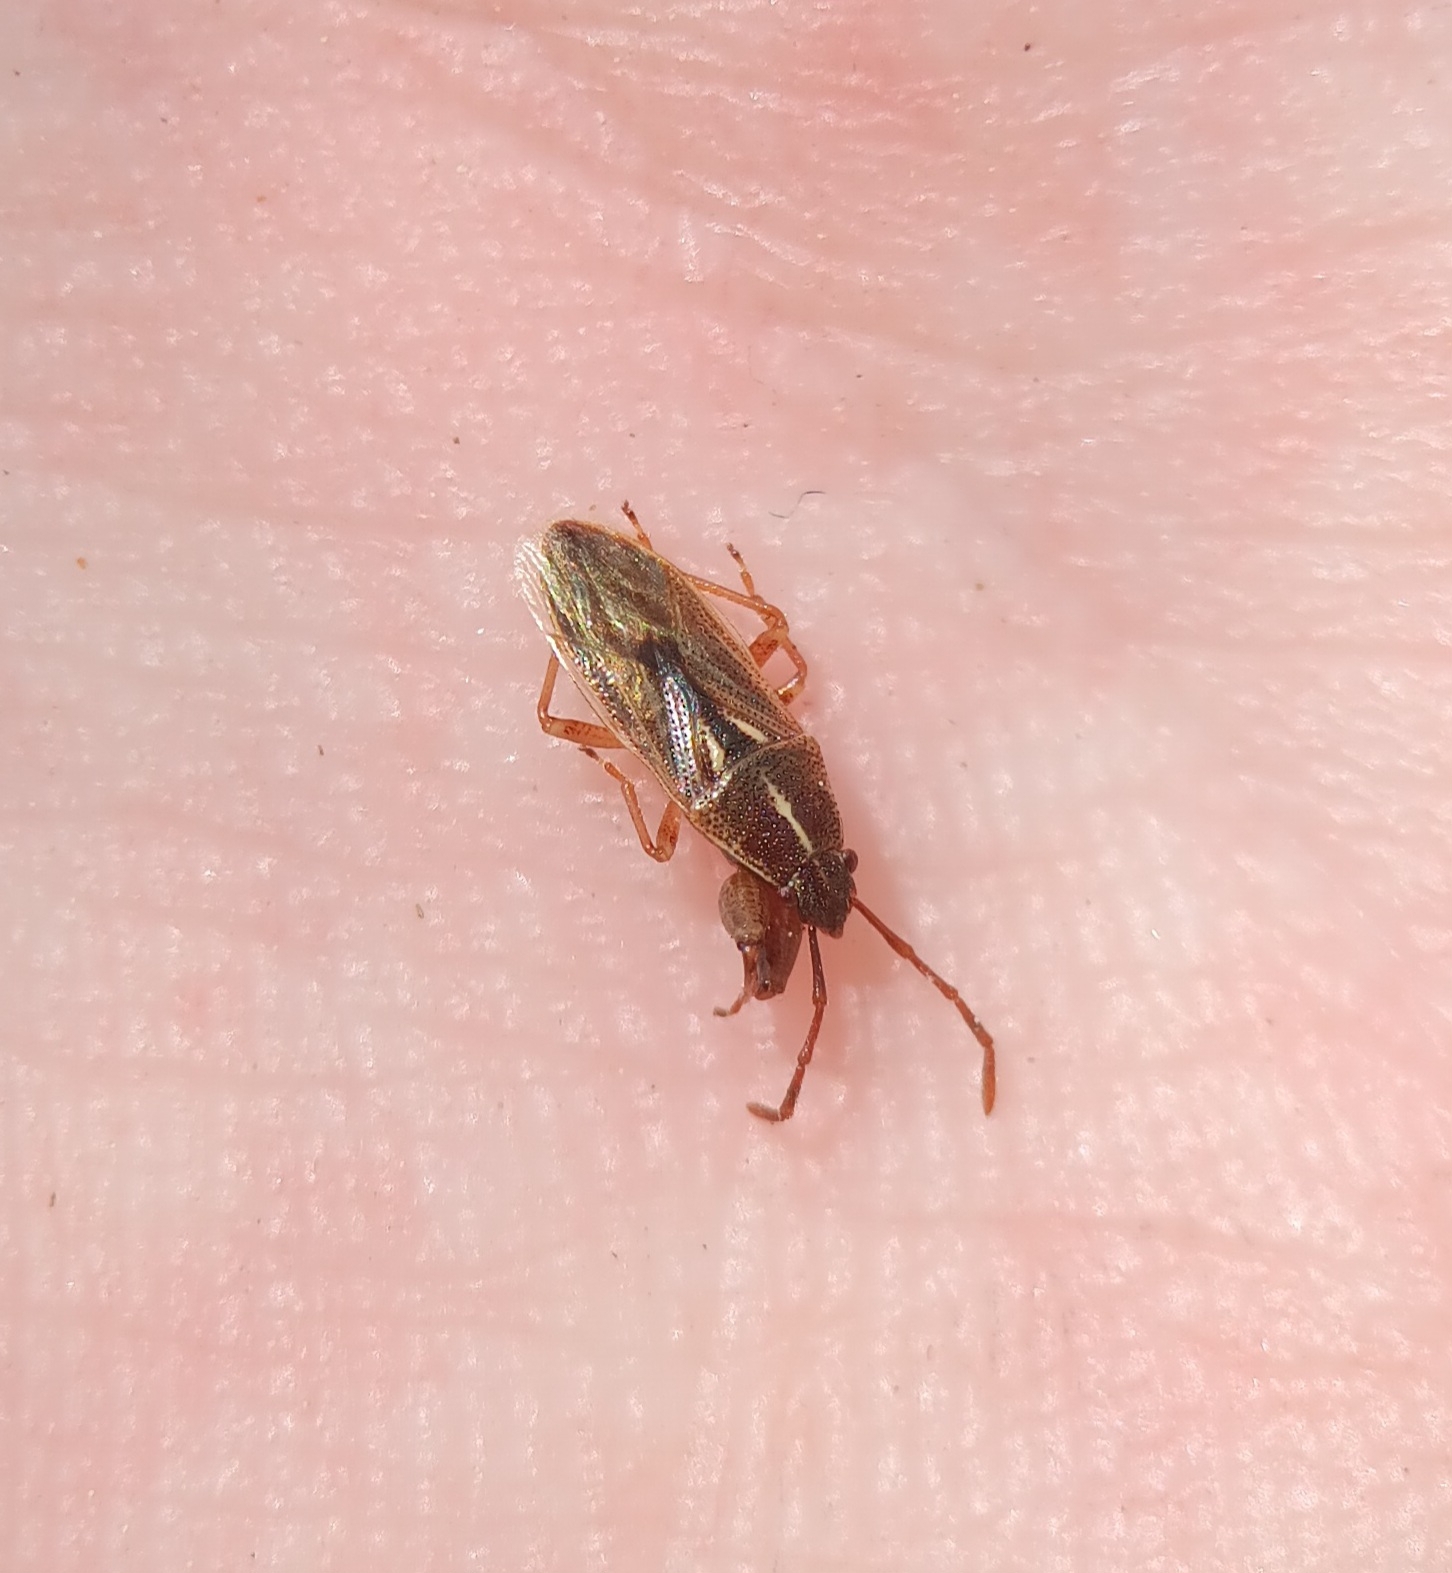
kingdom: Animalia
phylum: Arthropoda
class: Insecta
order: Hemiptera
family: Pachygronthidae
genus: Oedancala
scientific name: Oedancala dorsalis
